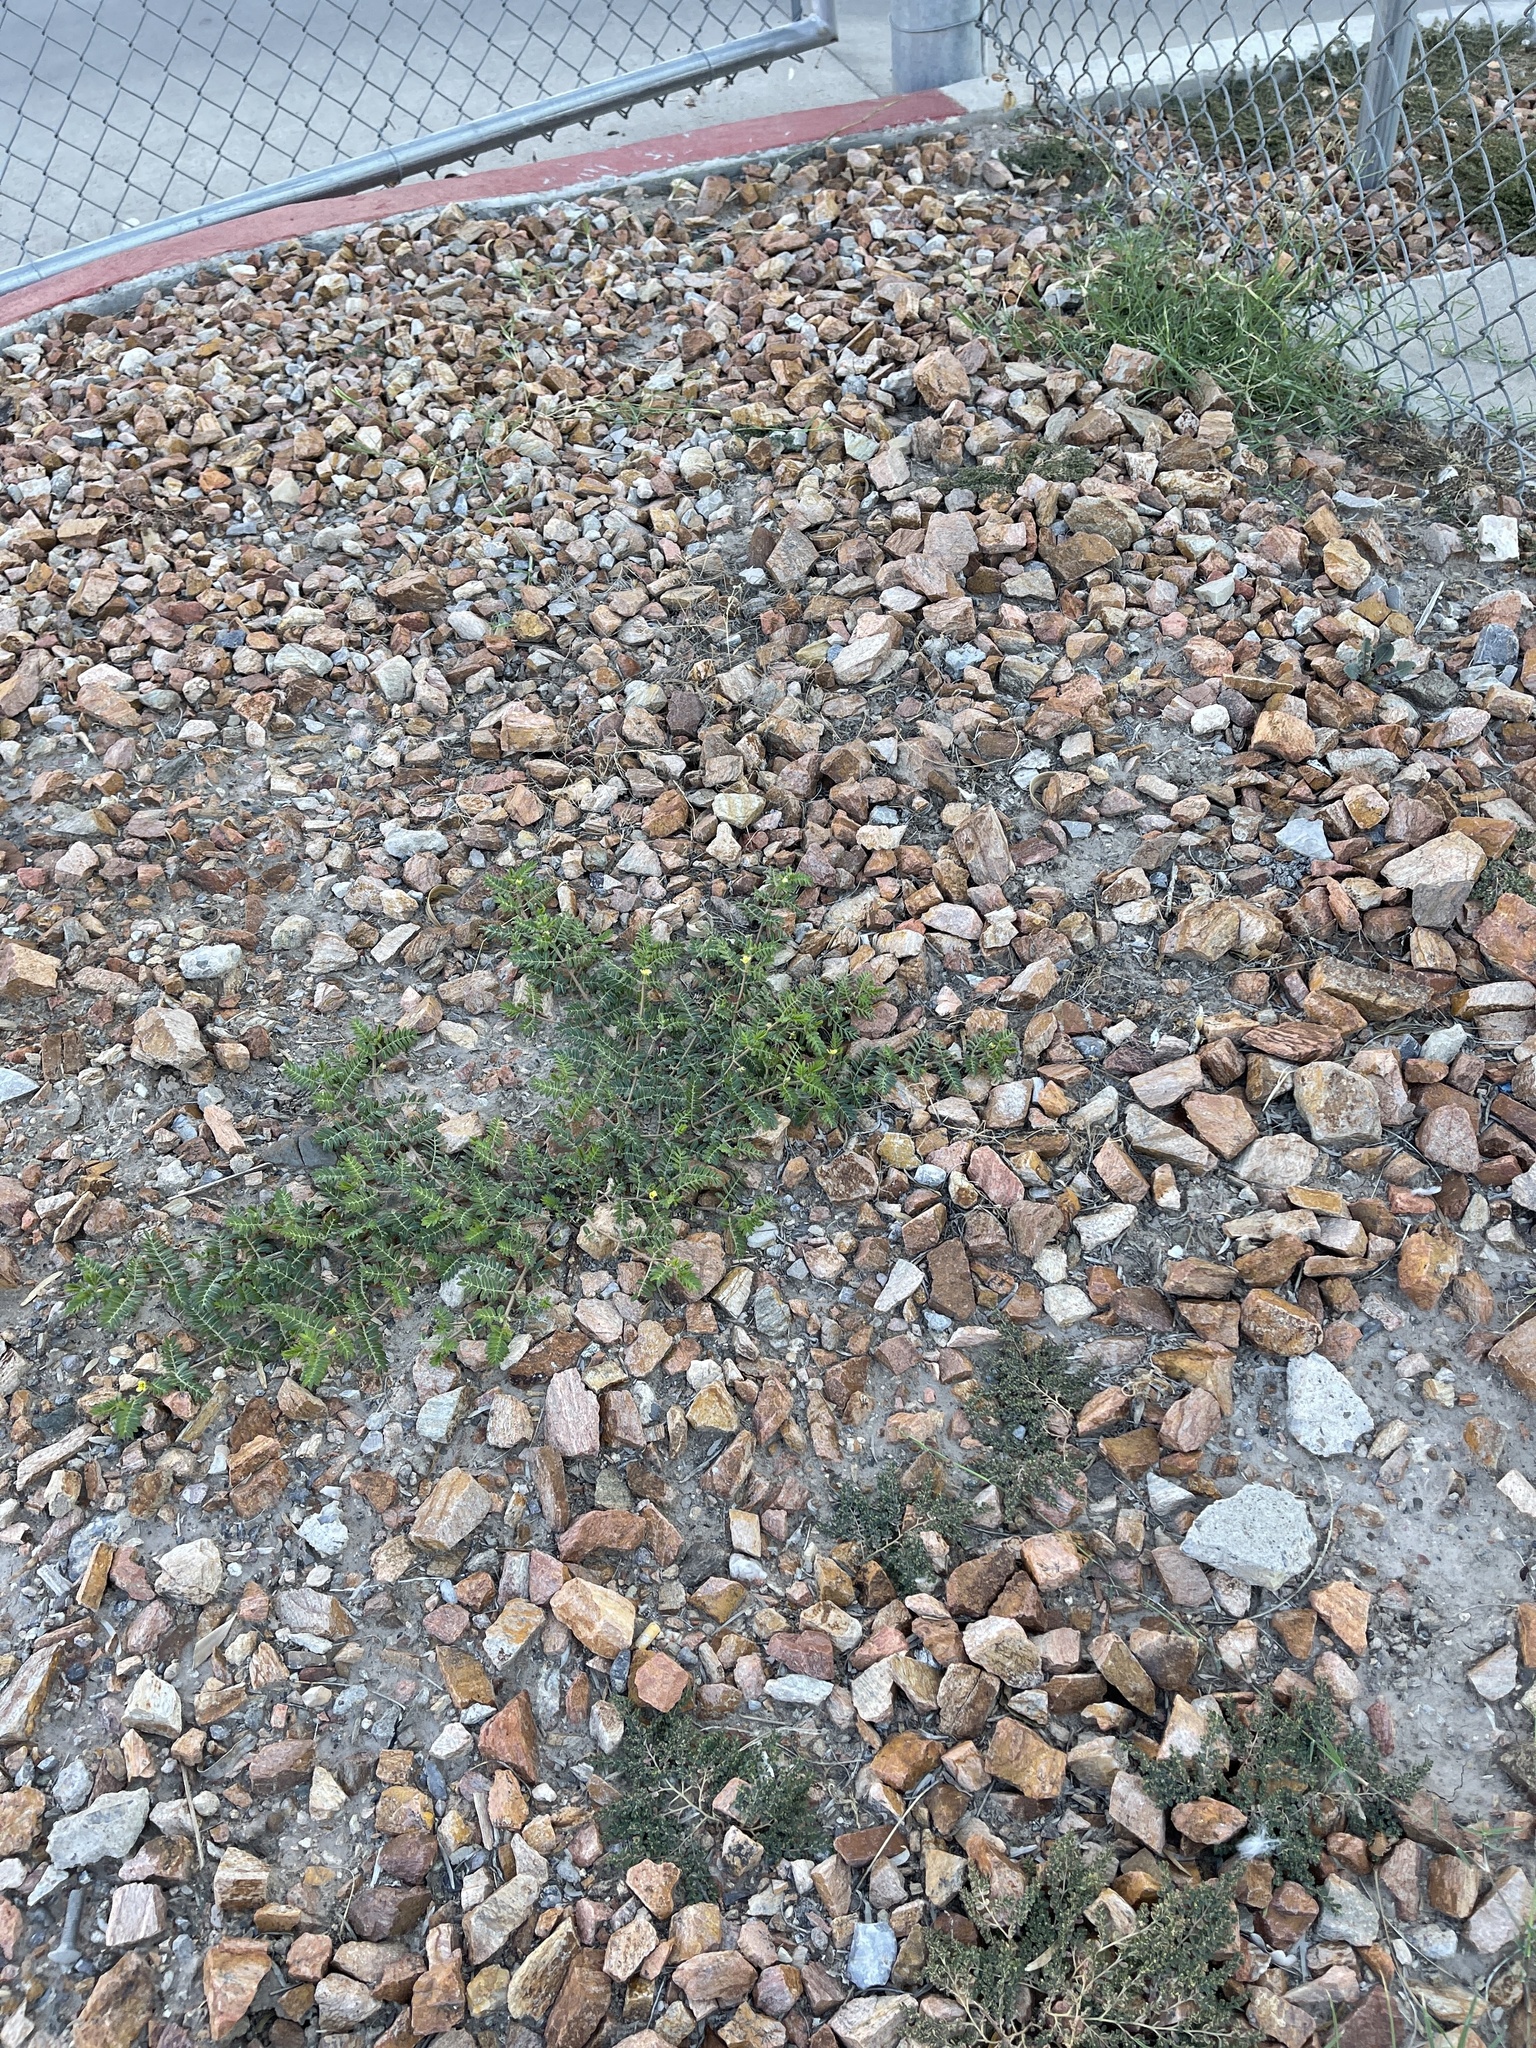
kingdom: Plantae
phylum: Tracheophyta
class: Magnoliopsida
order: Zygophyllales
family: Zygophyllaceae
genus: Tribulus
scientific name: Tribulus terrestris
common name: Puncturevine
